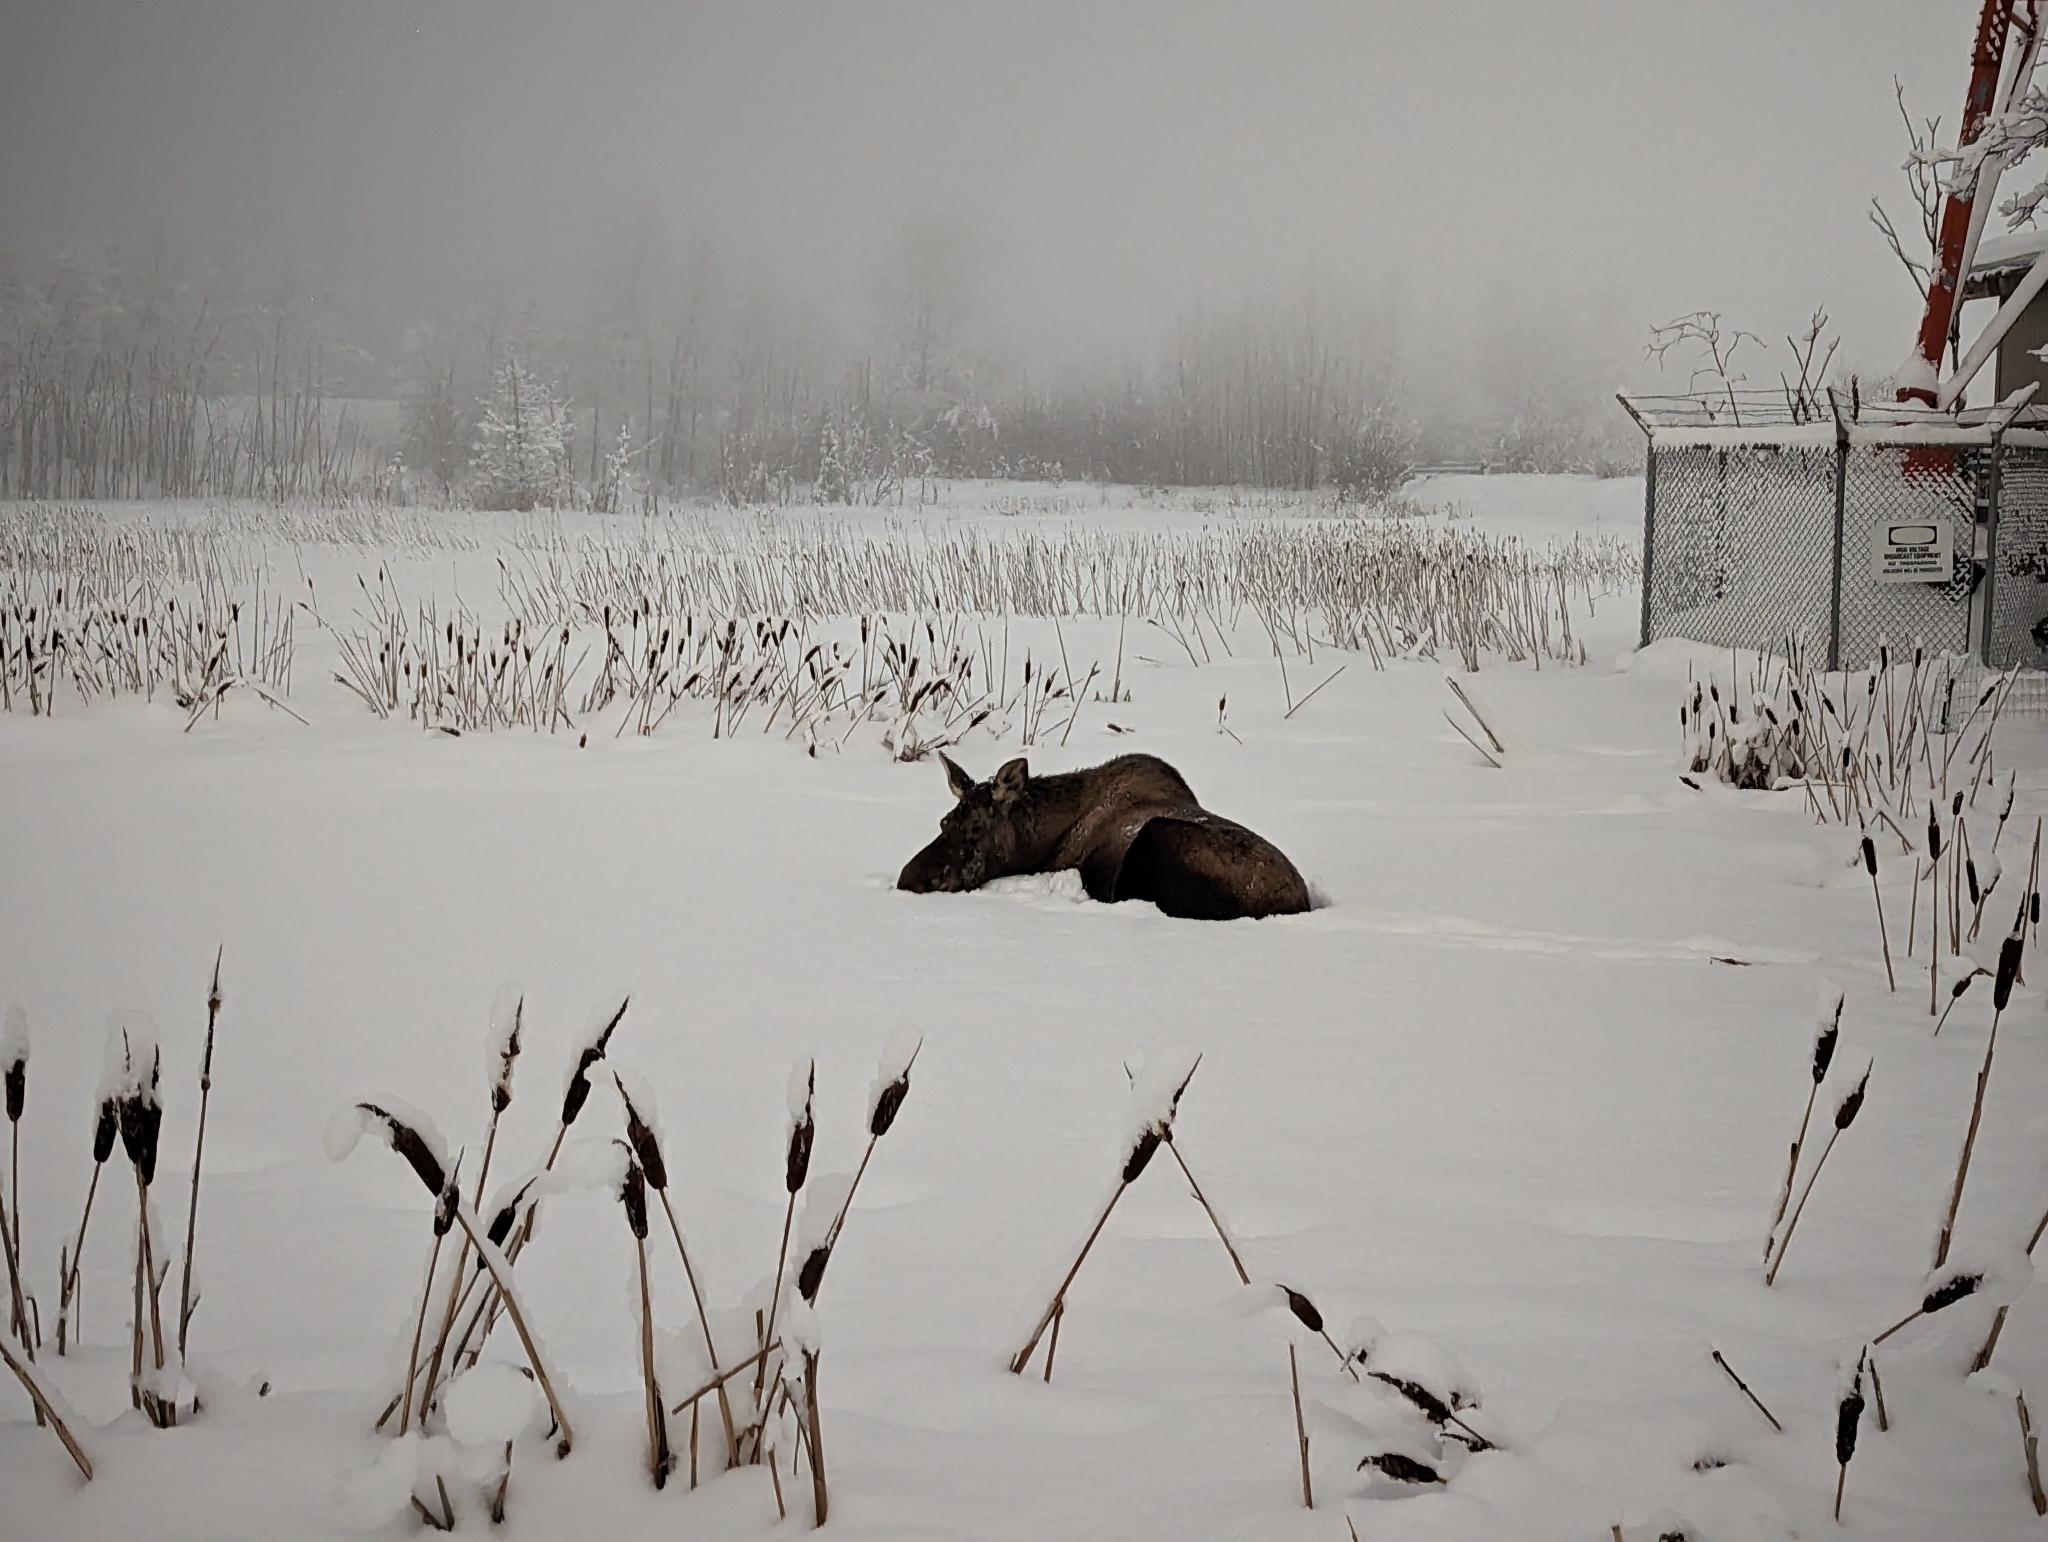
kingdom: Animalia
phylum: Chordata
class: Mammalia
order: Artiodactyla
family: Cervidae
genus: Alces
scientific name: Alces alces
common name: Moose
